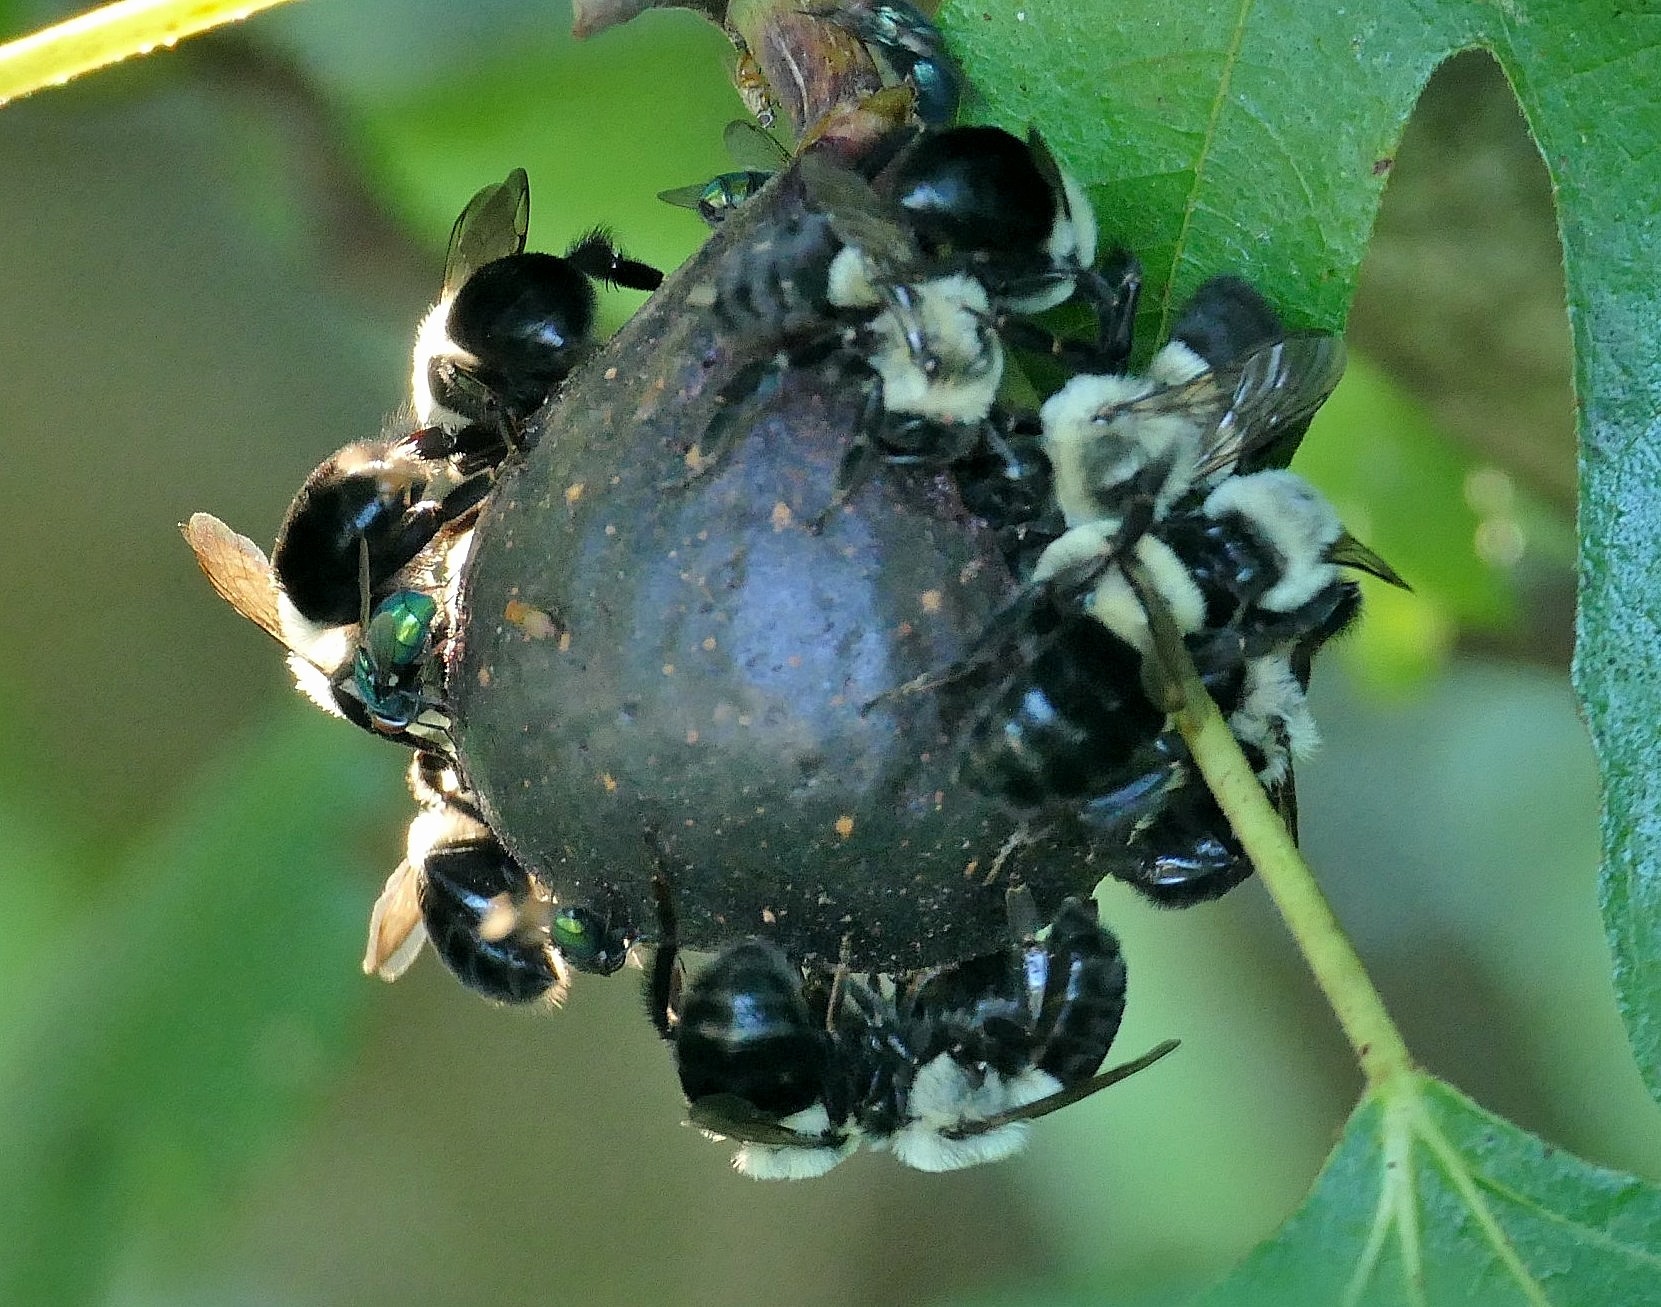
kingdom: Animalia
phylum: Arthropoda
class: Insecta
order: Hymenoptera
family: Apidae
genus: Bombus
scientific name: Bombus impatiens
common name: Common eastern bumble bee
